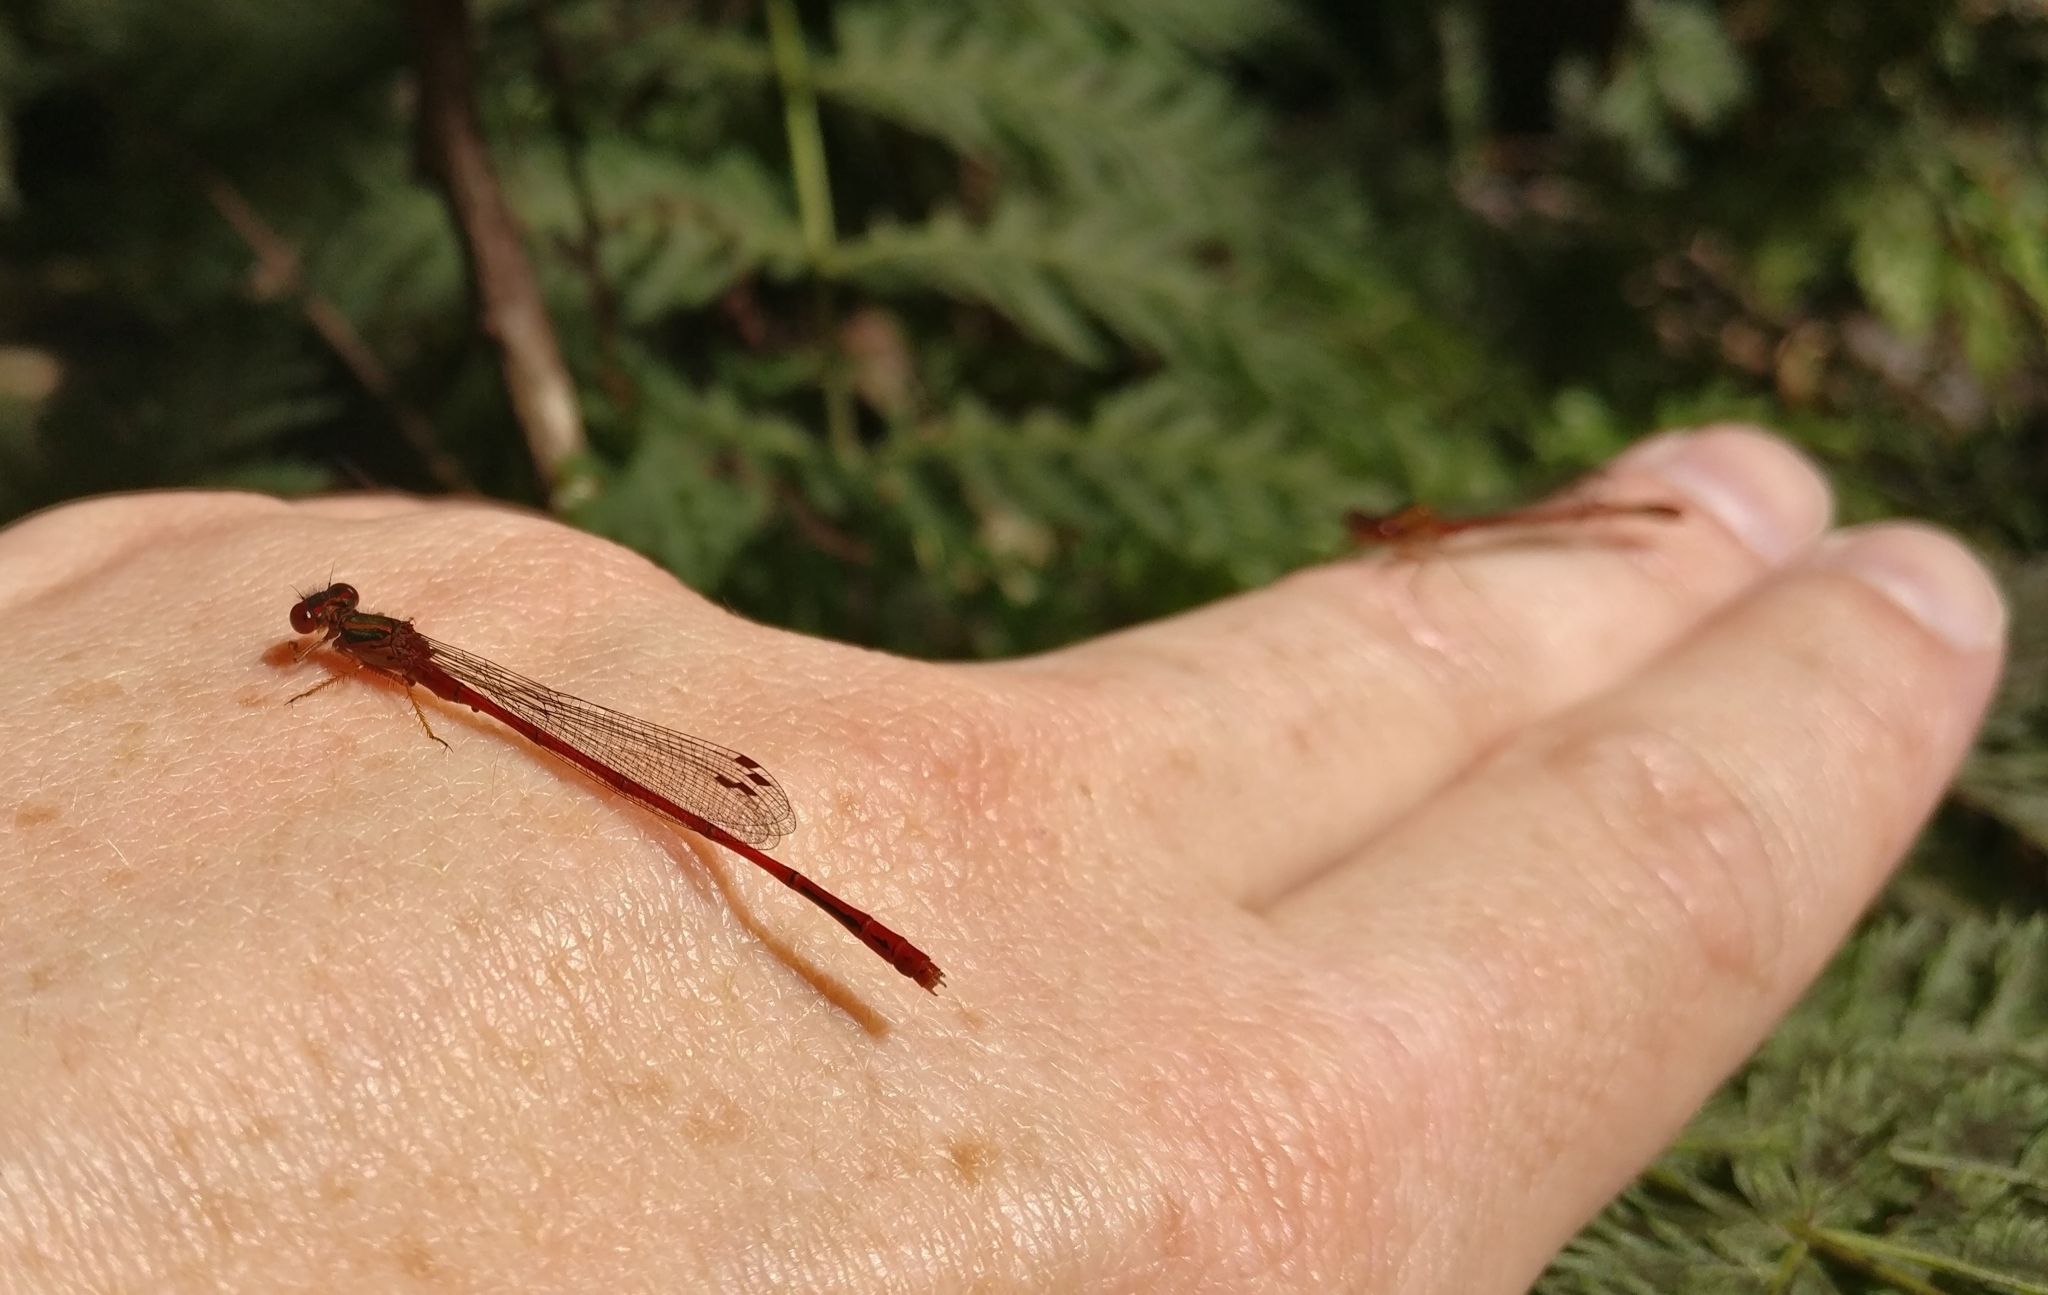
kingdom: Animalia
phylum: Arthropoda
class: Insecta
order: Odonata
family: Coenagrionidae
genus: Xanthocnemis
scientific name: Xanthocnemis zealandica
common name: Common redcoat damselfly
